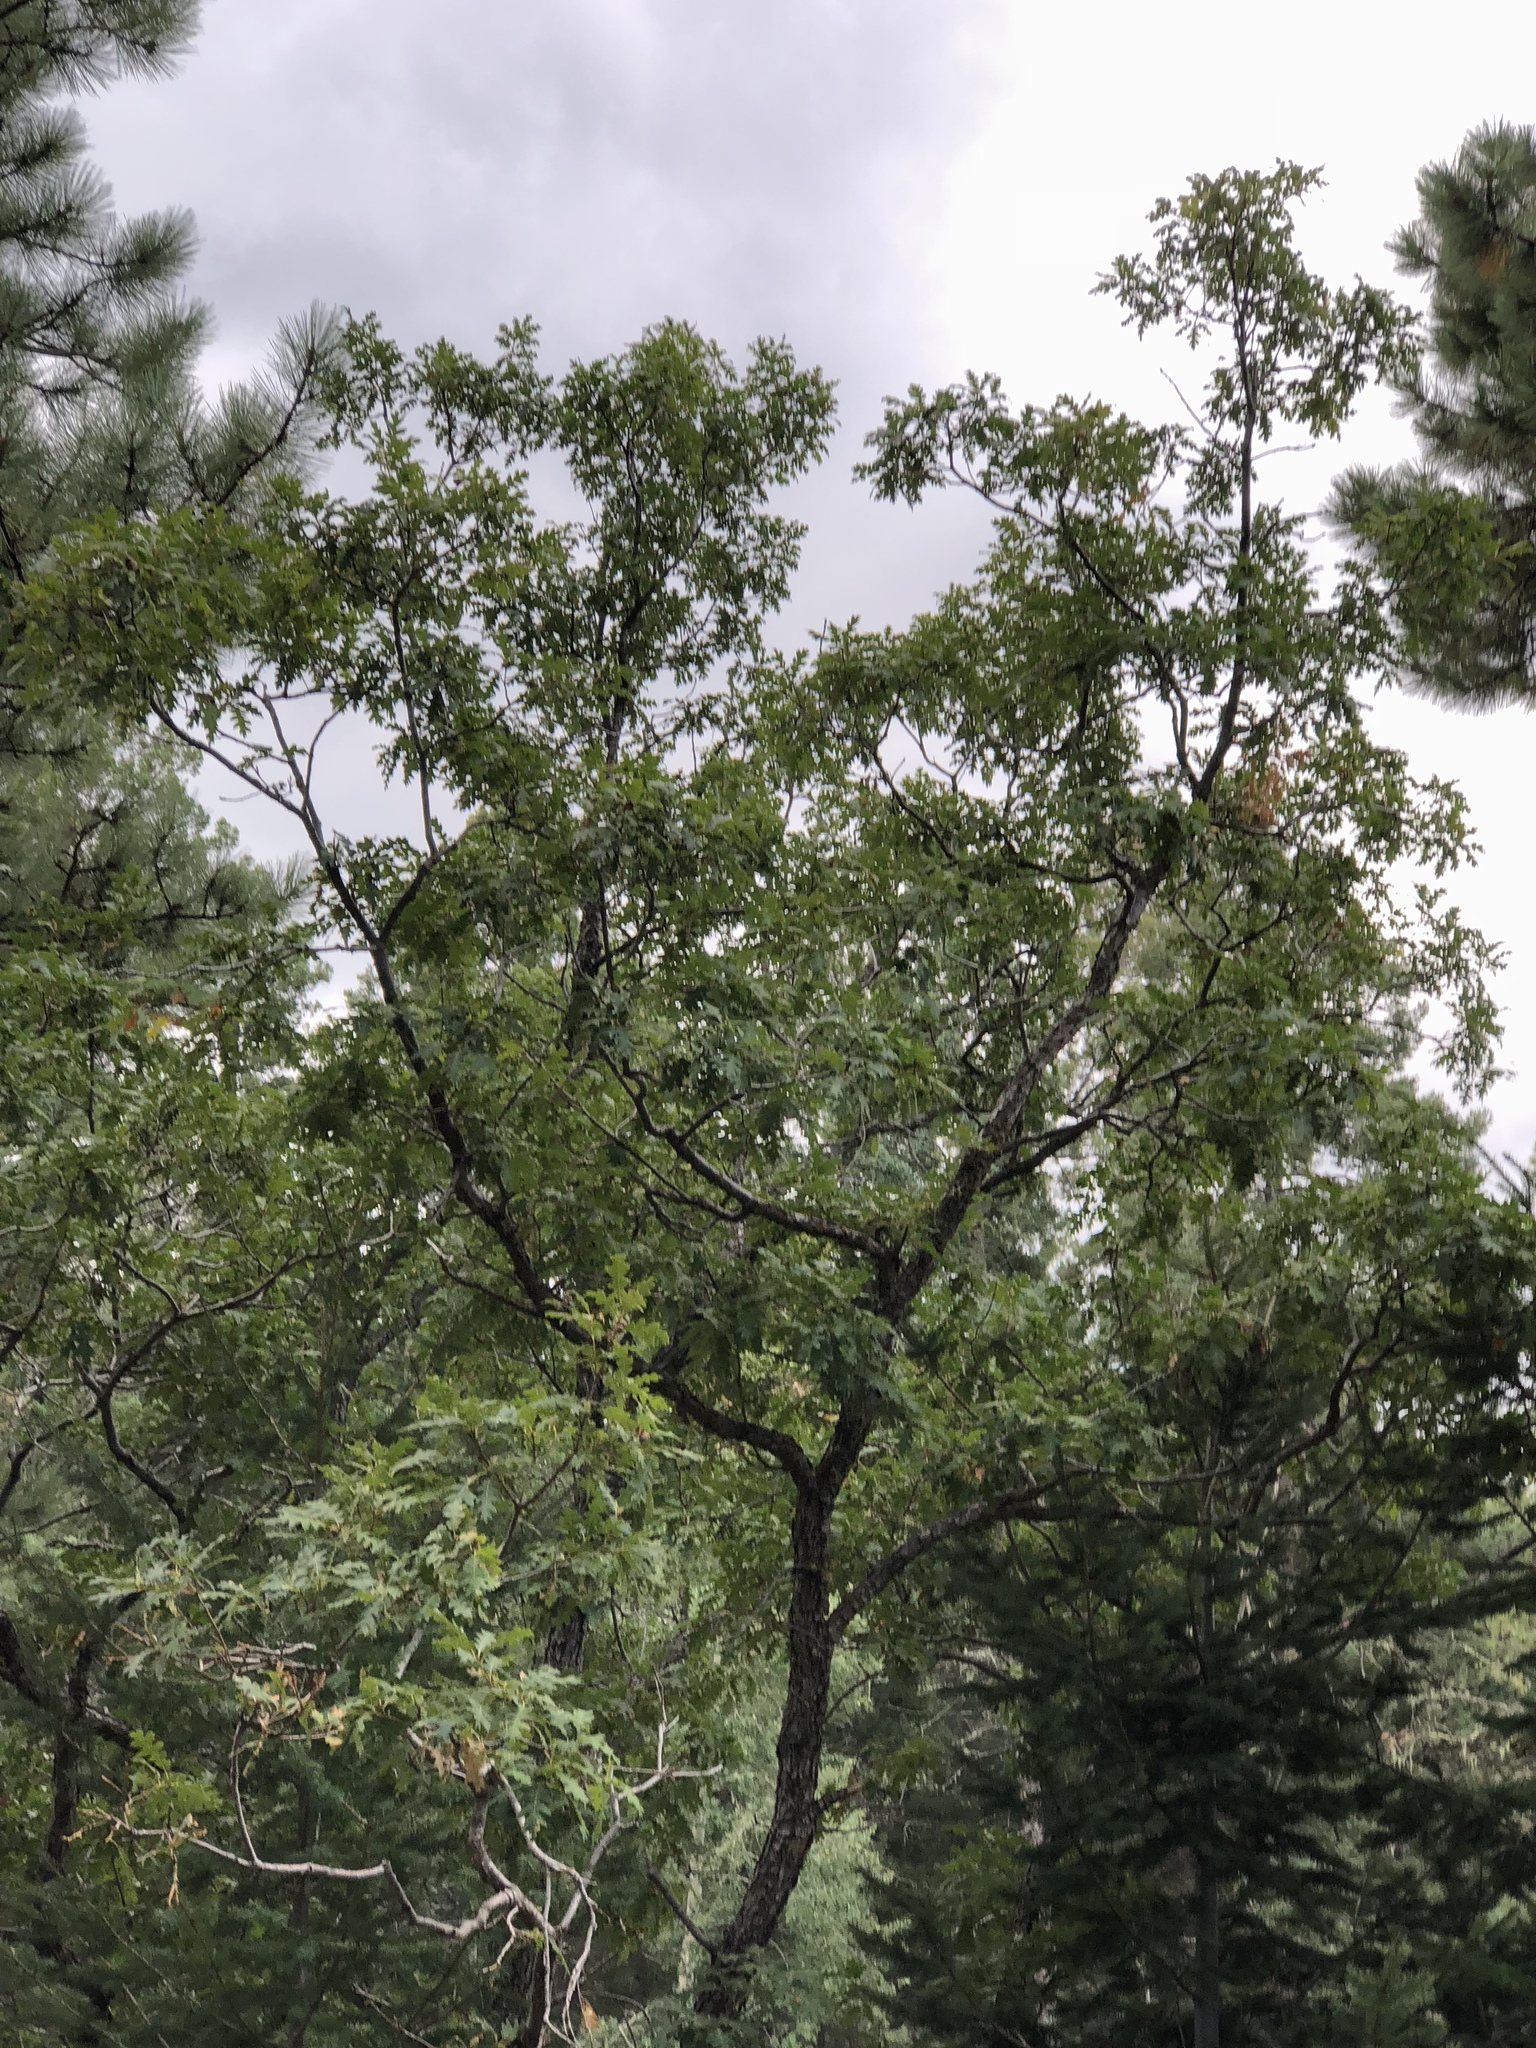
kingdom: Plantae
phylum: Tracheophyta
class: Magnoliopsida
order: Fagales
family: Fagaceae
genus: Quercus
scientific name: Quercus gambelii
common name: Gambel oak
